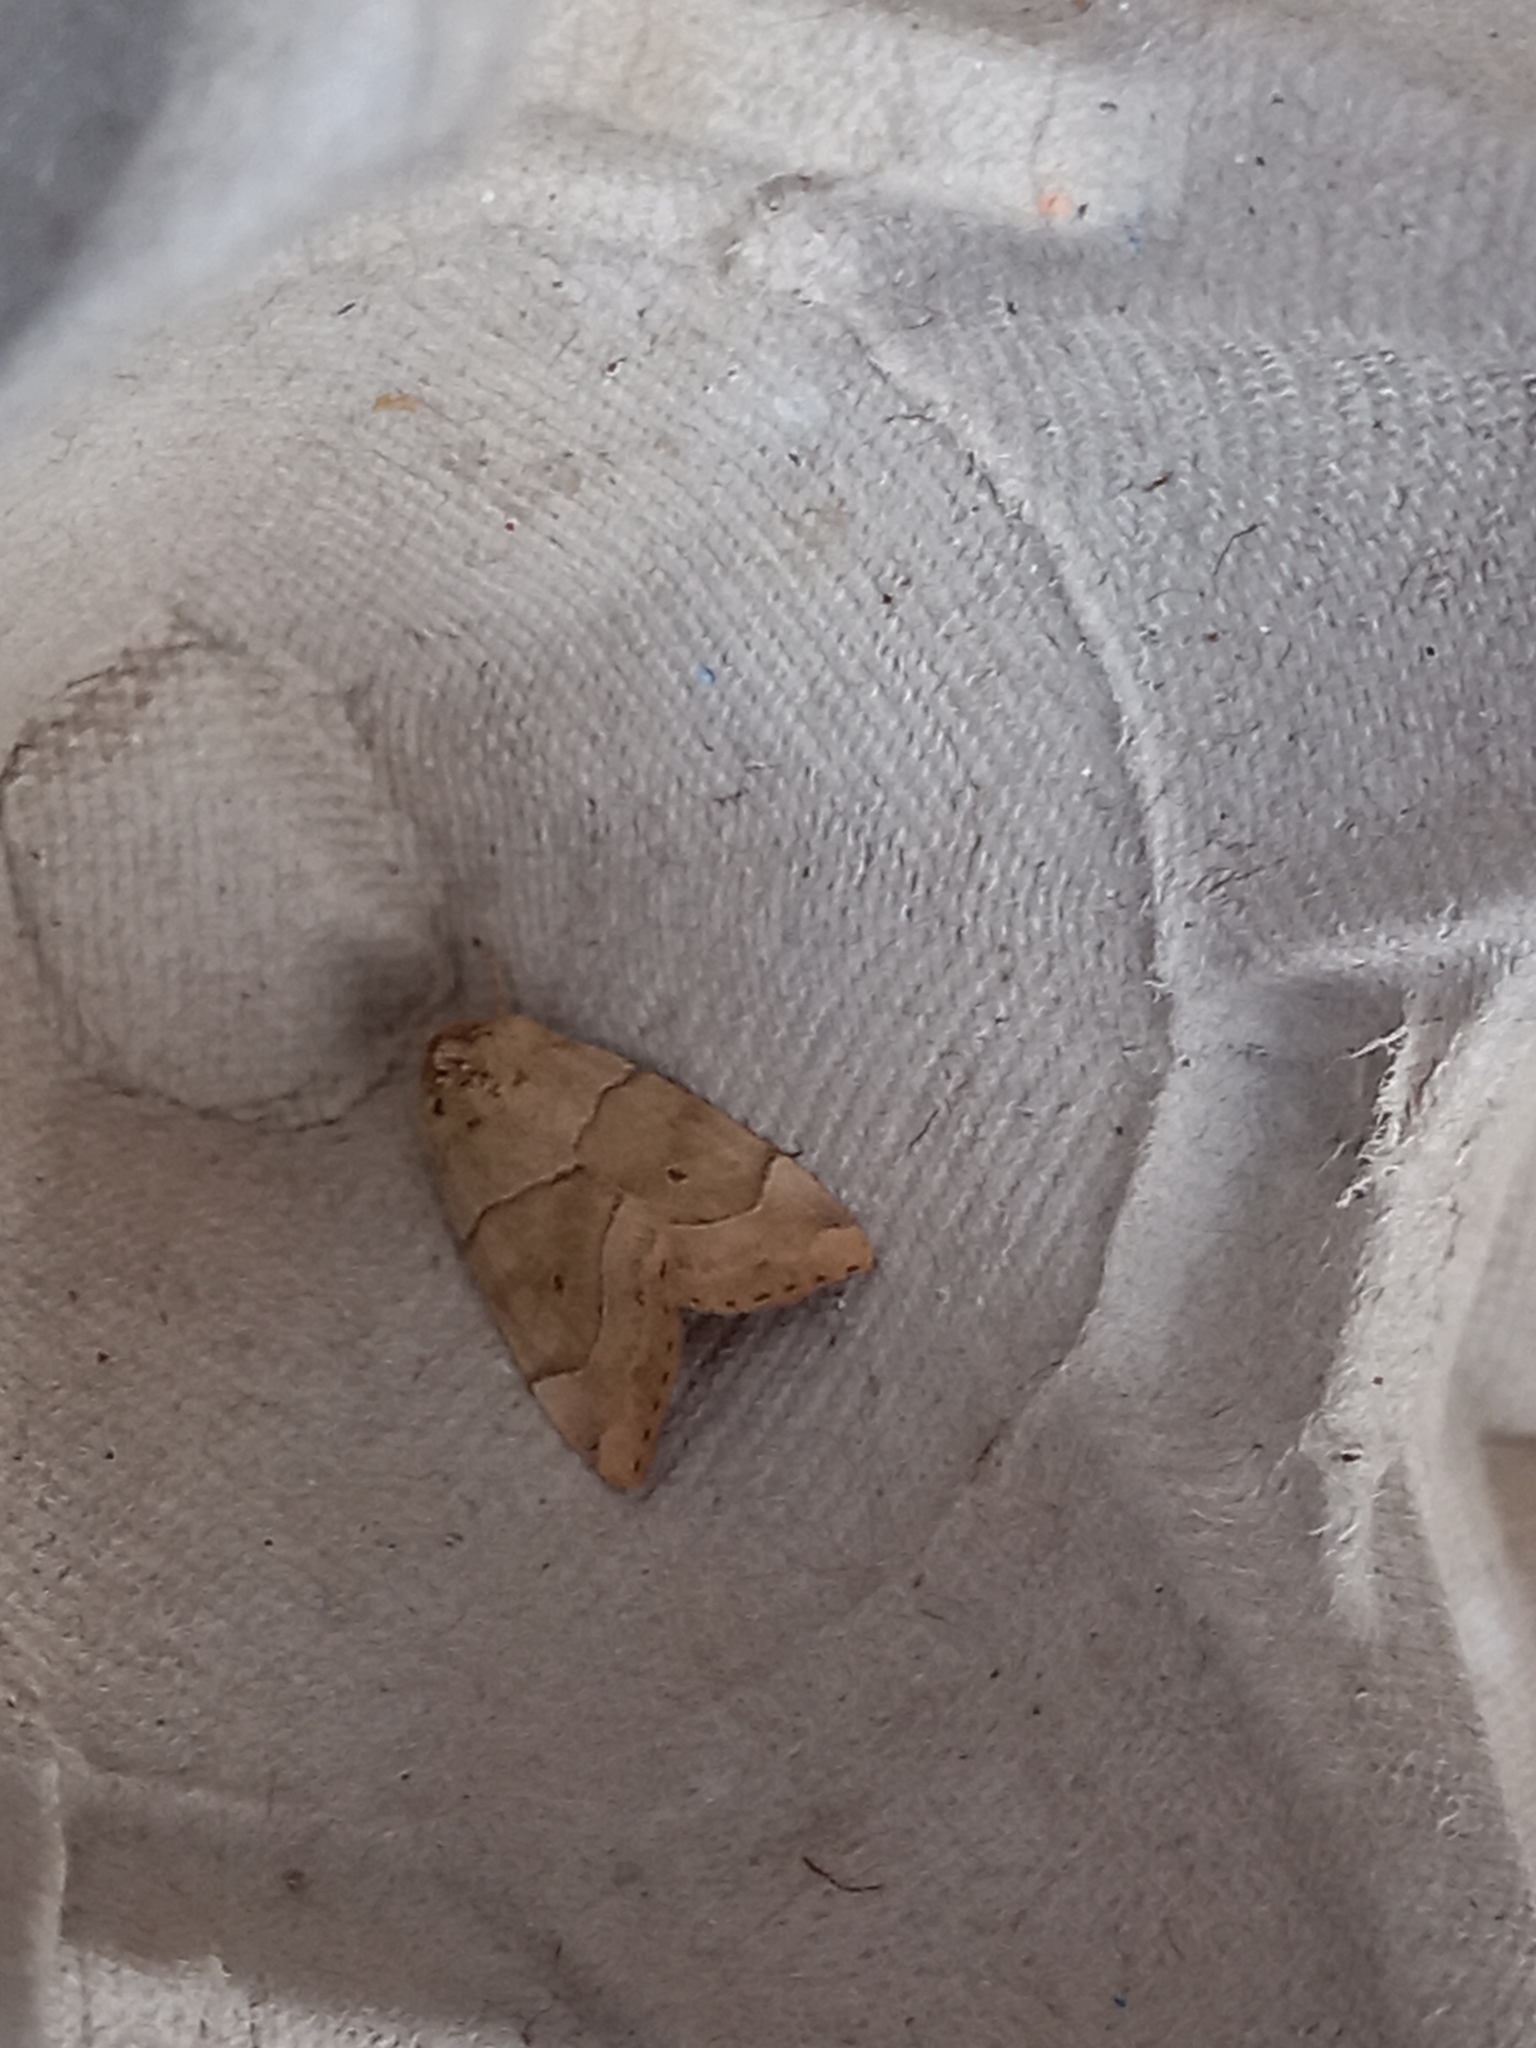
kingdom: Animalia
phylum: Arthropoda
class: Insecta
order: Lepidoptera
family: Noctuidae
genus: Cosmia
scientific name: Cosmia trapezina
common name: Dun-bar
